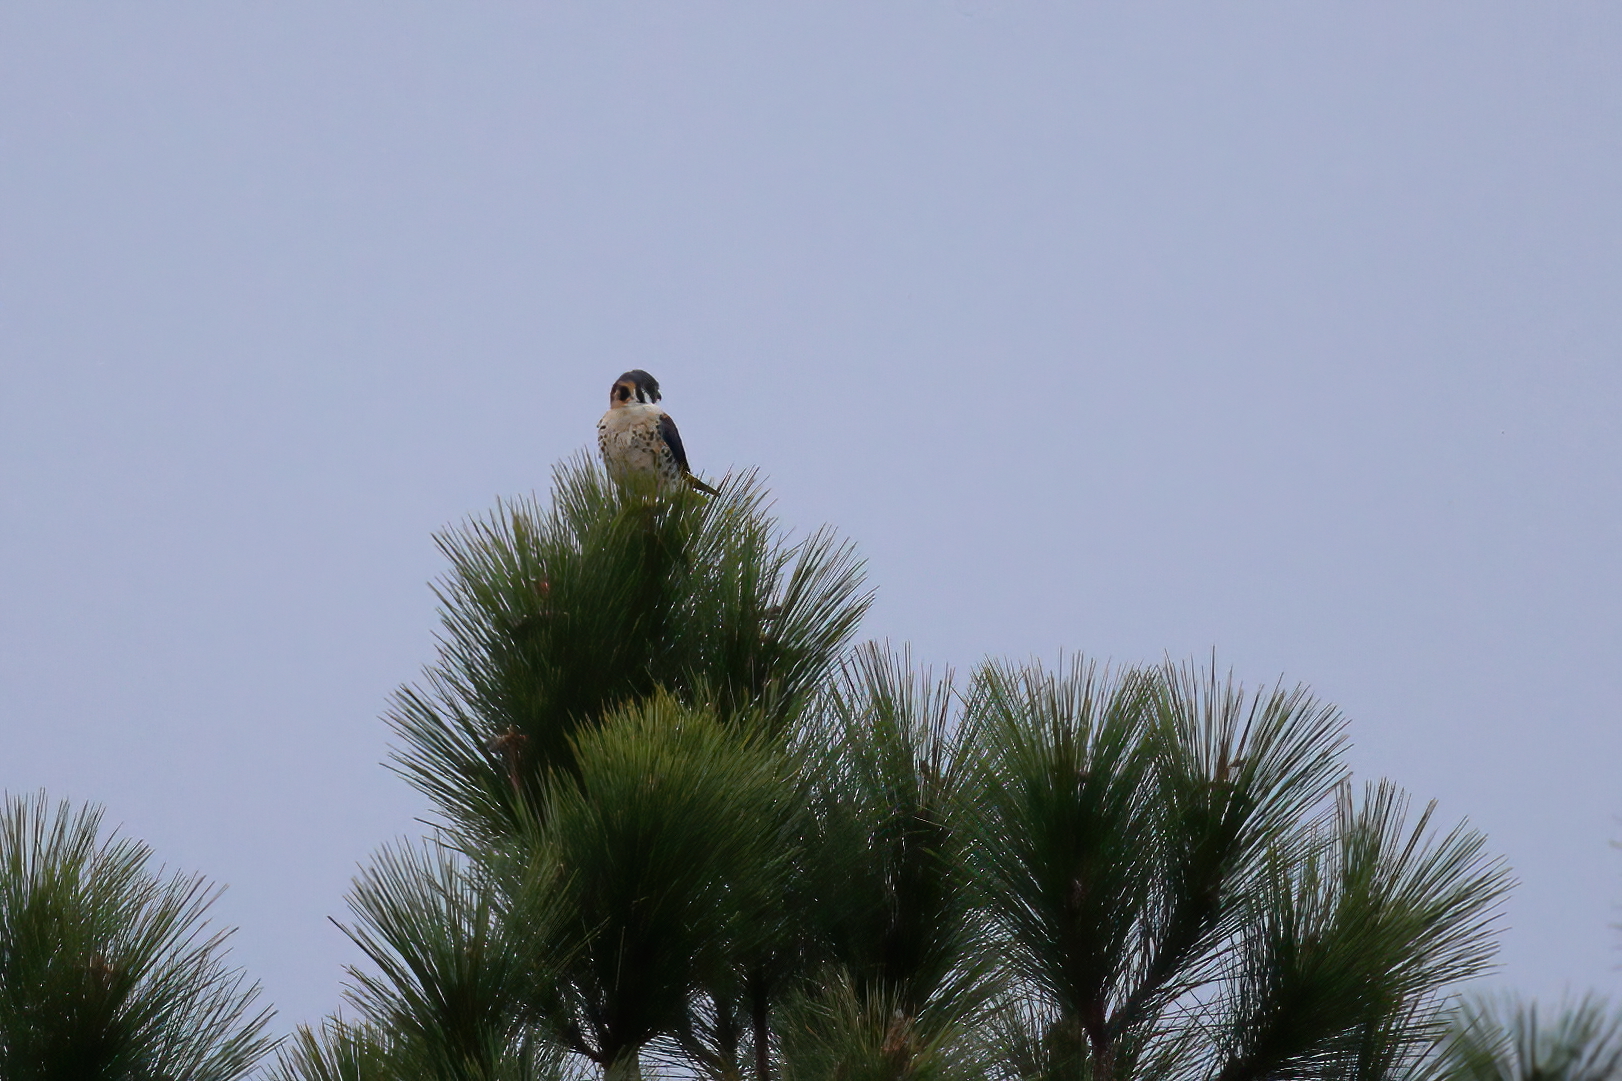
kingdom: Animalia
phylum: Chordata
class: Aves
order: Falconiformes
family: Falconidae
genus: Falco
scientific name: Falco sparverius
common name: American kestrel
